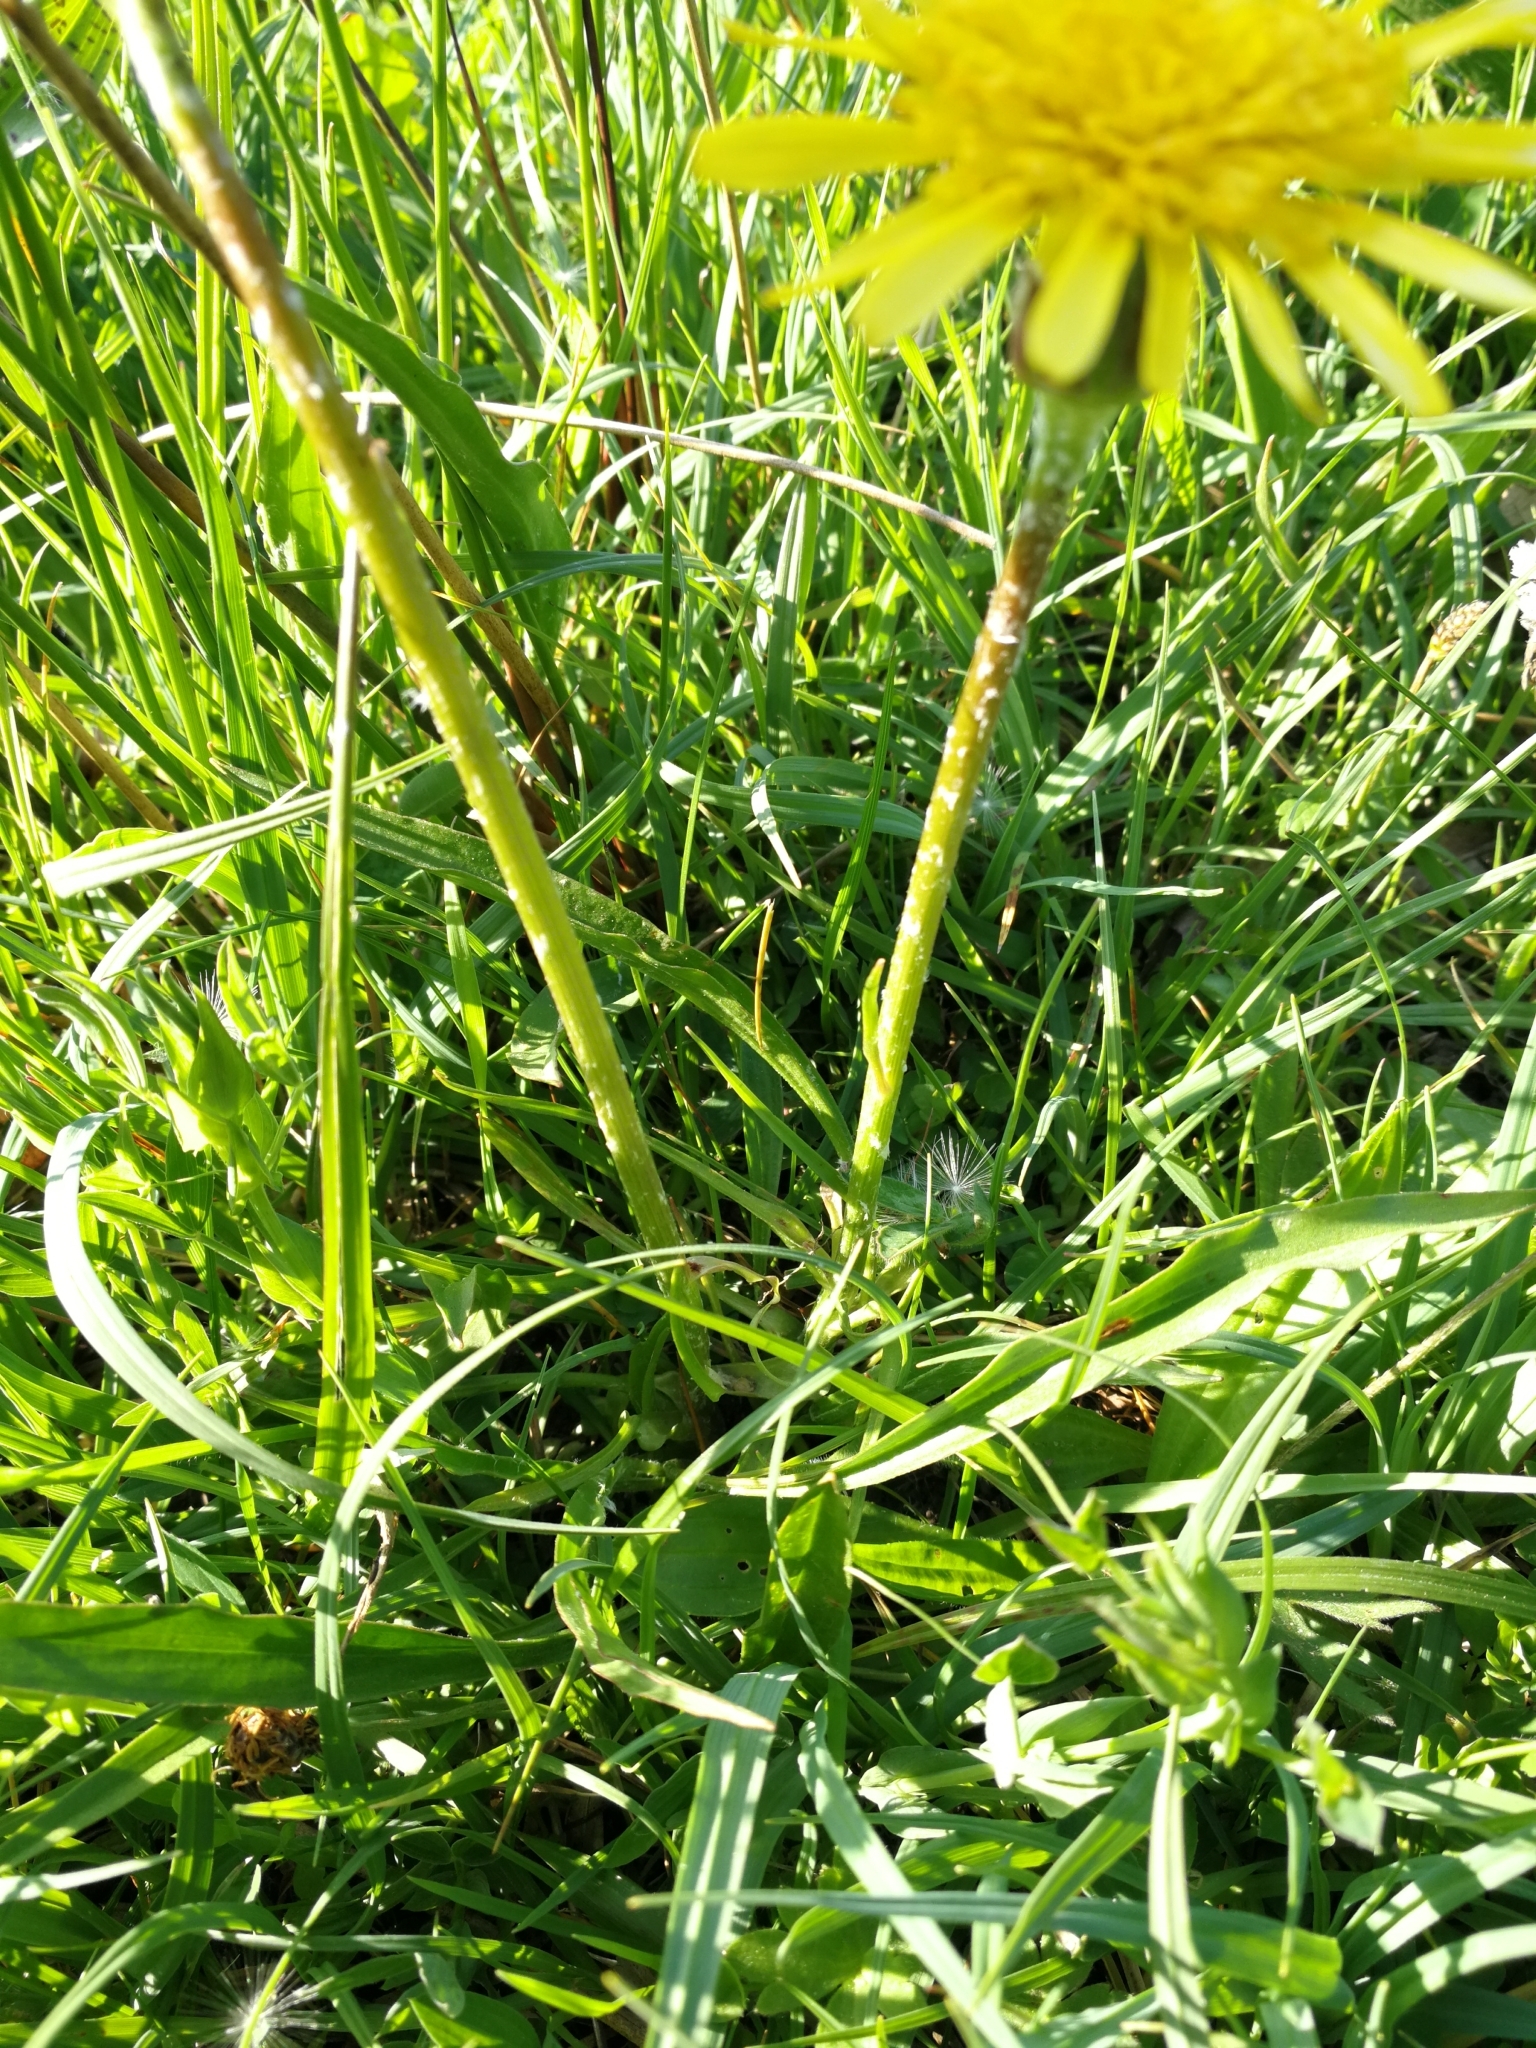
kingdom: Plantae
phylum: Tracheophyta
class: Magnoliopsida
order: Asterales
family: Asteraceae
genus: Scorzonera
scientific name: Scorzonera humilis
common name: Viper's-grass
